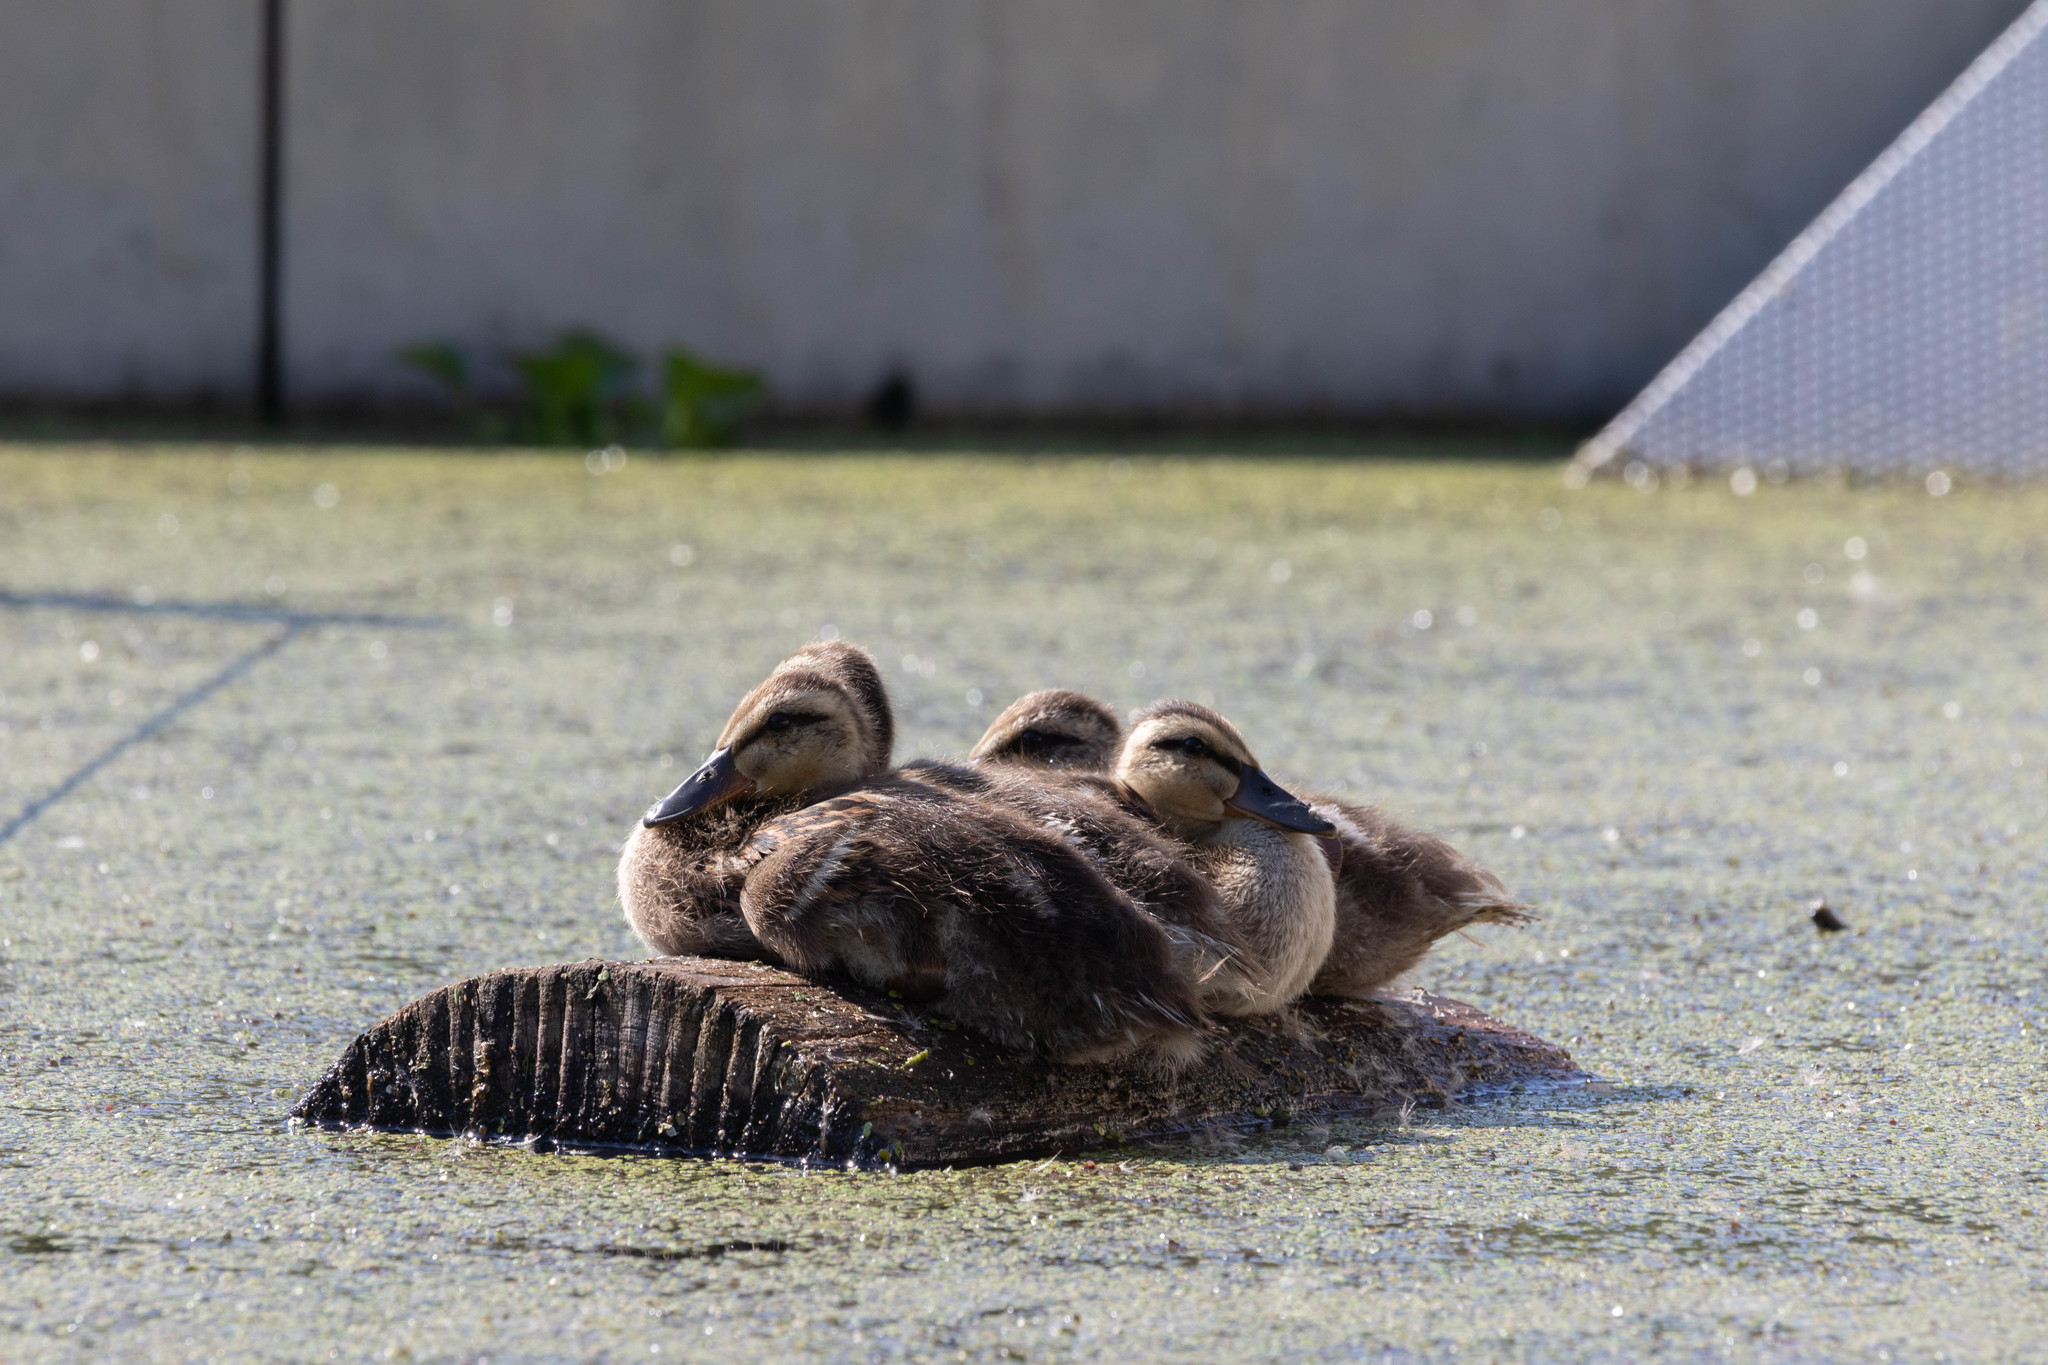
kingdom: Animalia
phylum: Chordata
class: Aves
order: Anseriformes
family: Anatidae
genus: Anas
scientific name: Anas platyrhynchos
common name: Mallard
